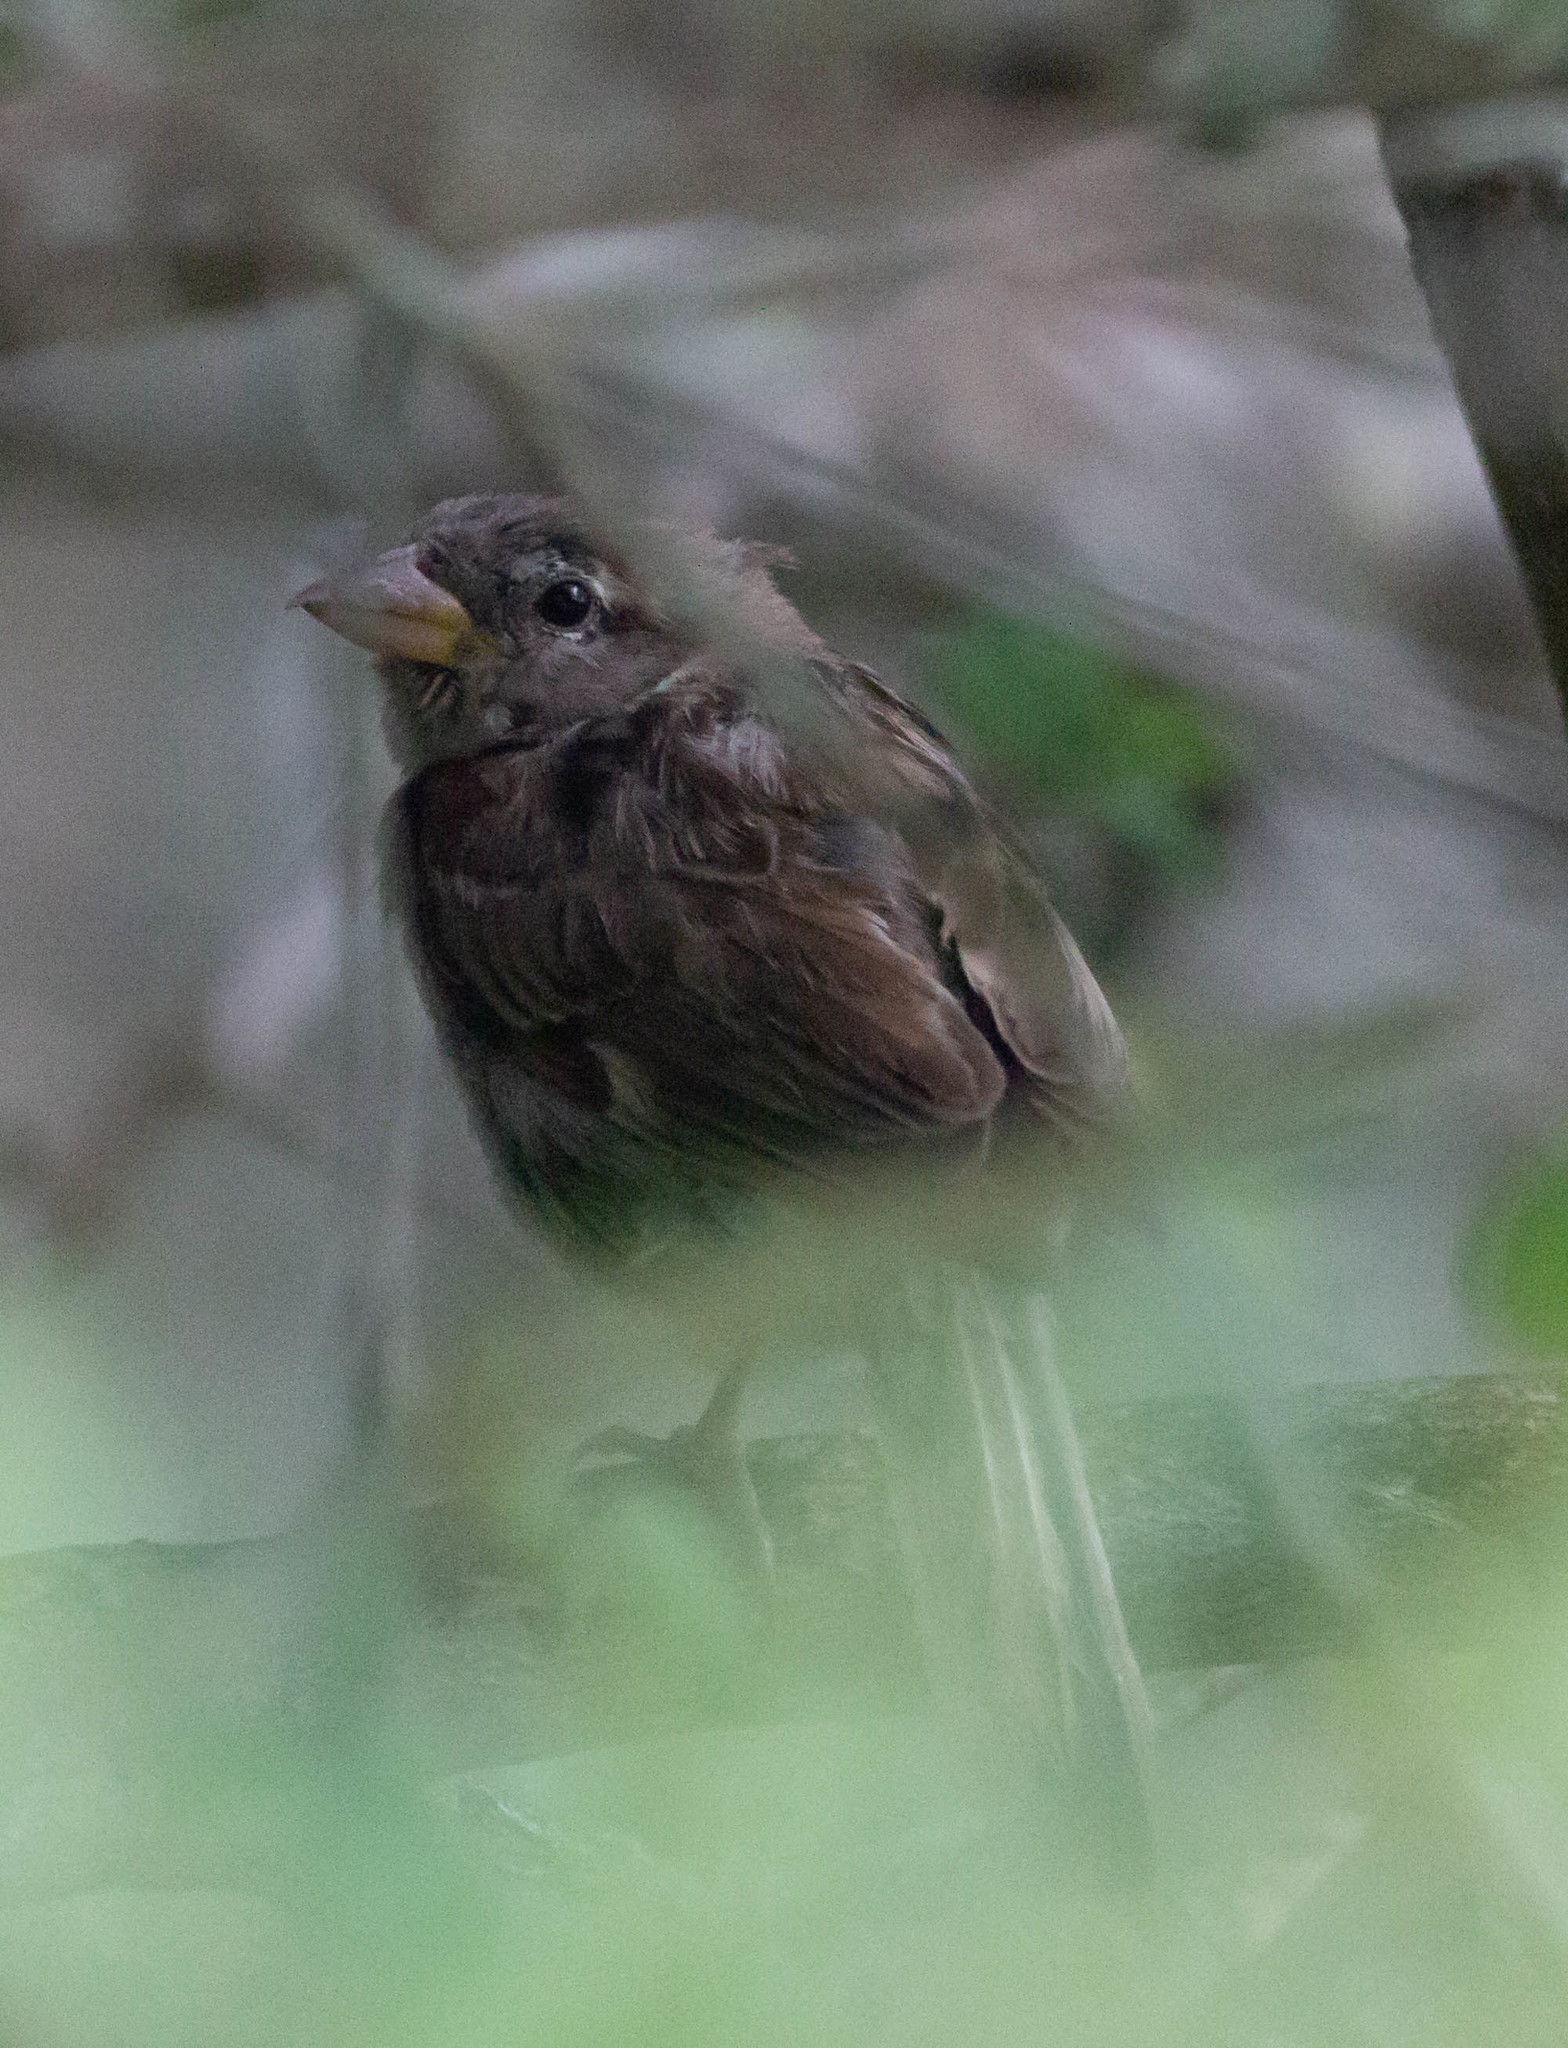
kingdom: Animalia
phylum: Chordata
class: Aves
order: Passeriformes
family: Passeridae
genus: Passer
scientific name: Passer domesticus
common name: House sparrow
